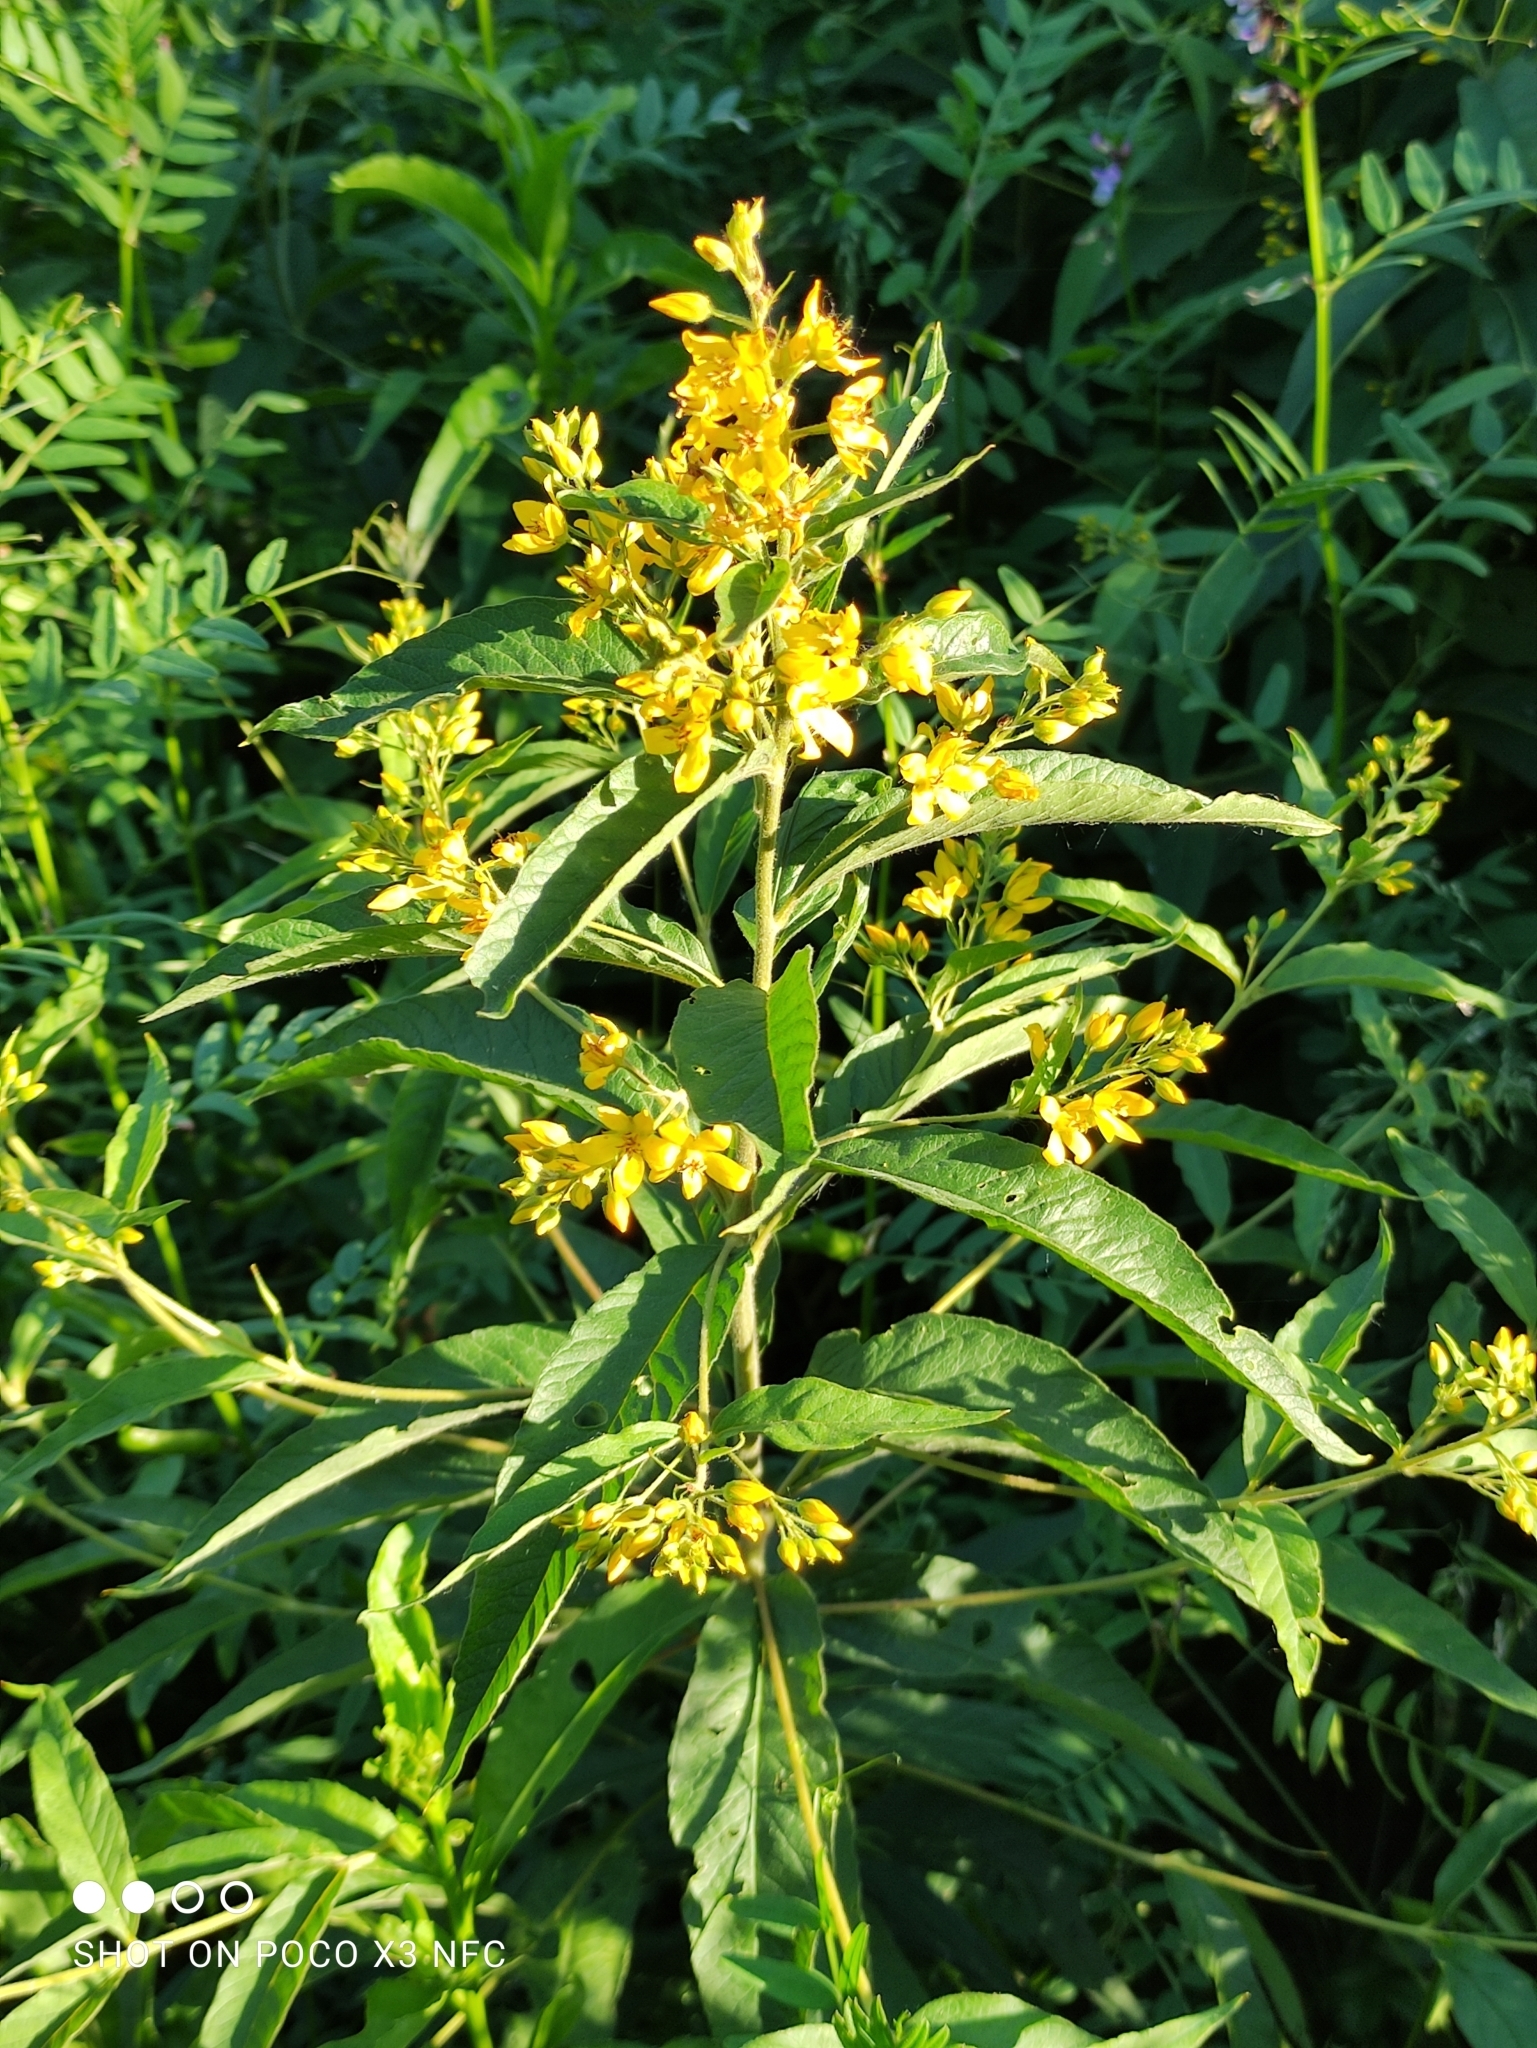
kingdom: Plantae
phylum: Tracheophyta
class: Magnoliopsida
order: Ericales
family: Primulaceae
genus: Lysimachia
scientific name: Lysimachia vulgaris
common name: Yellow loosestrife
